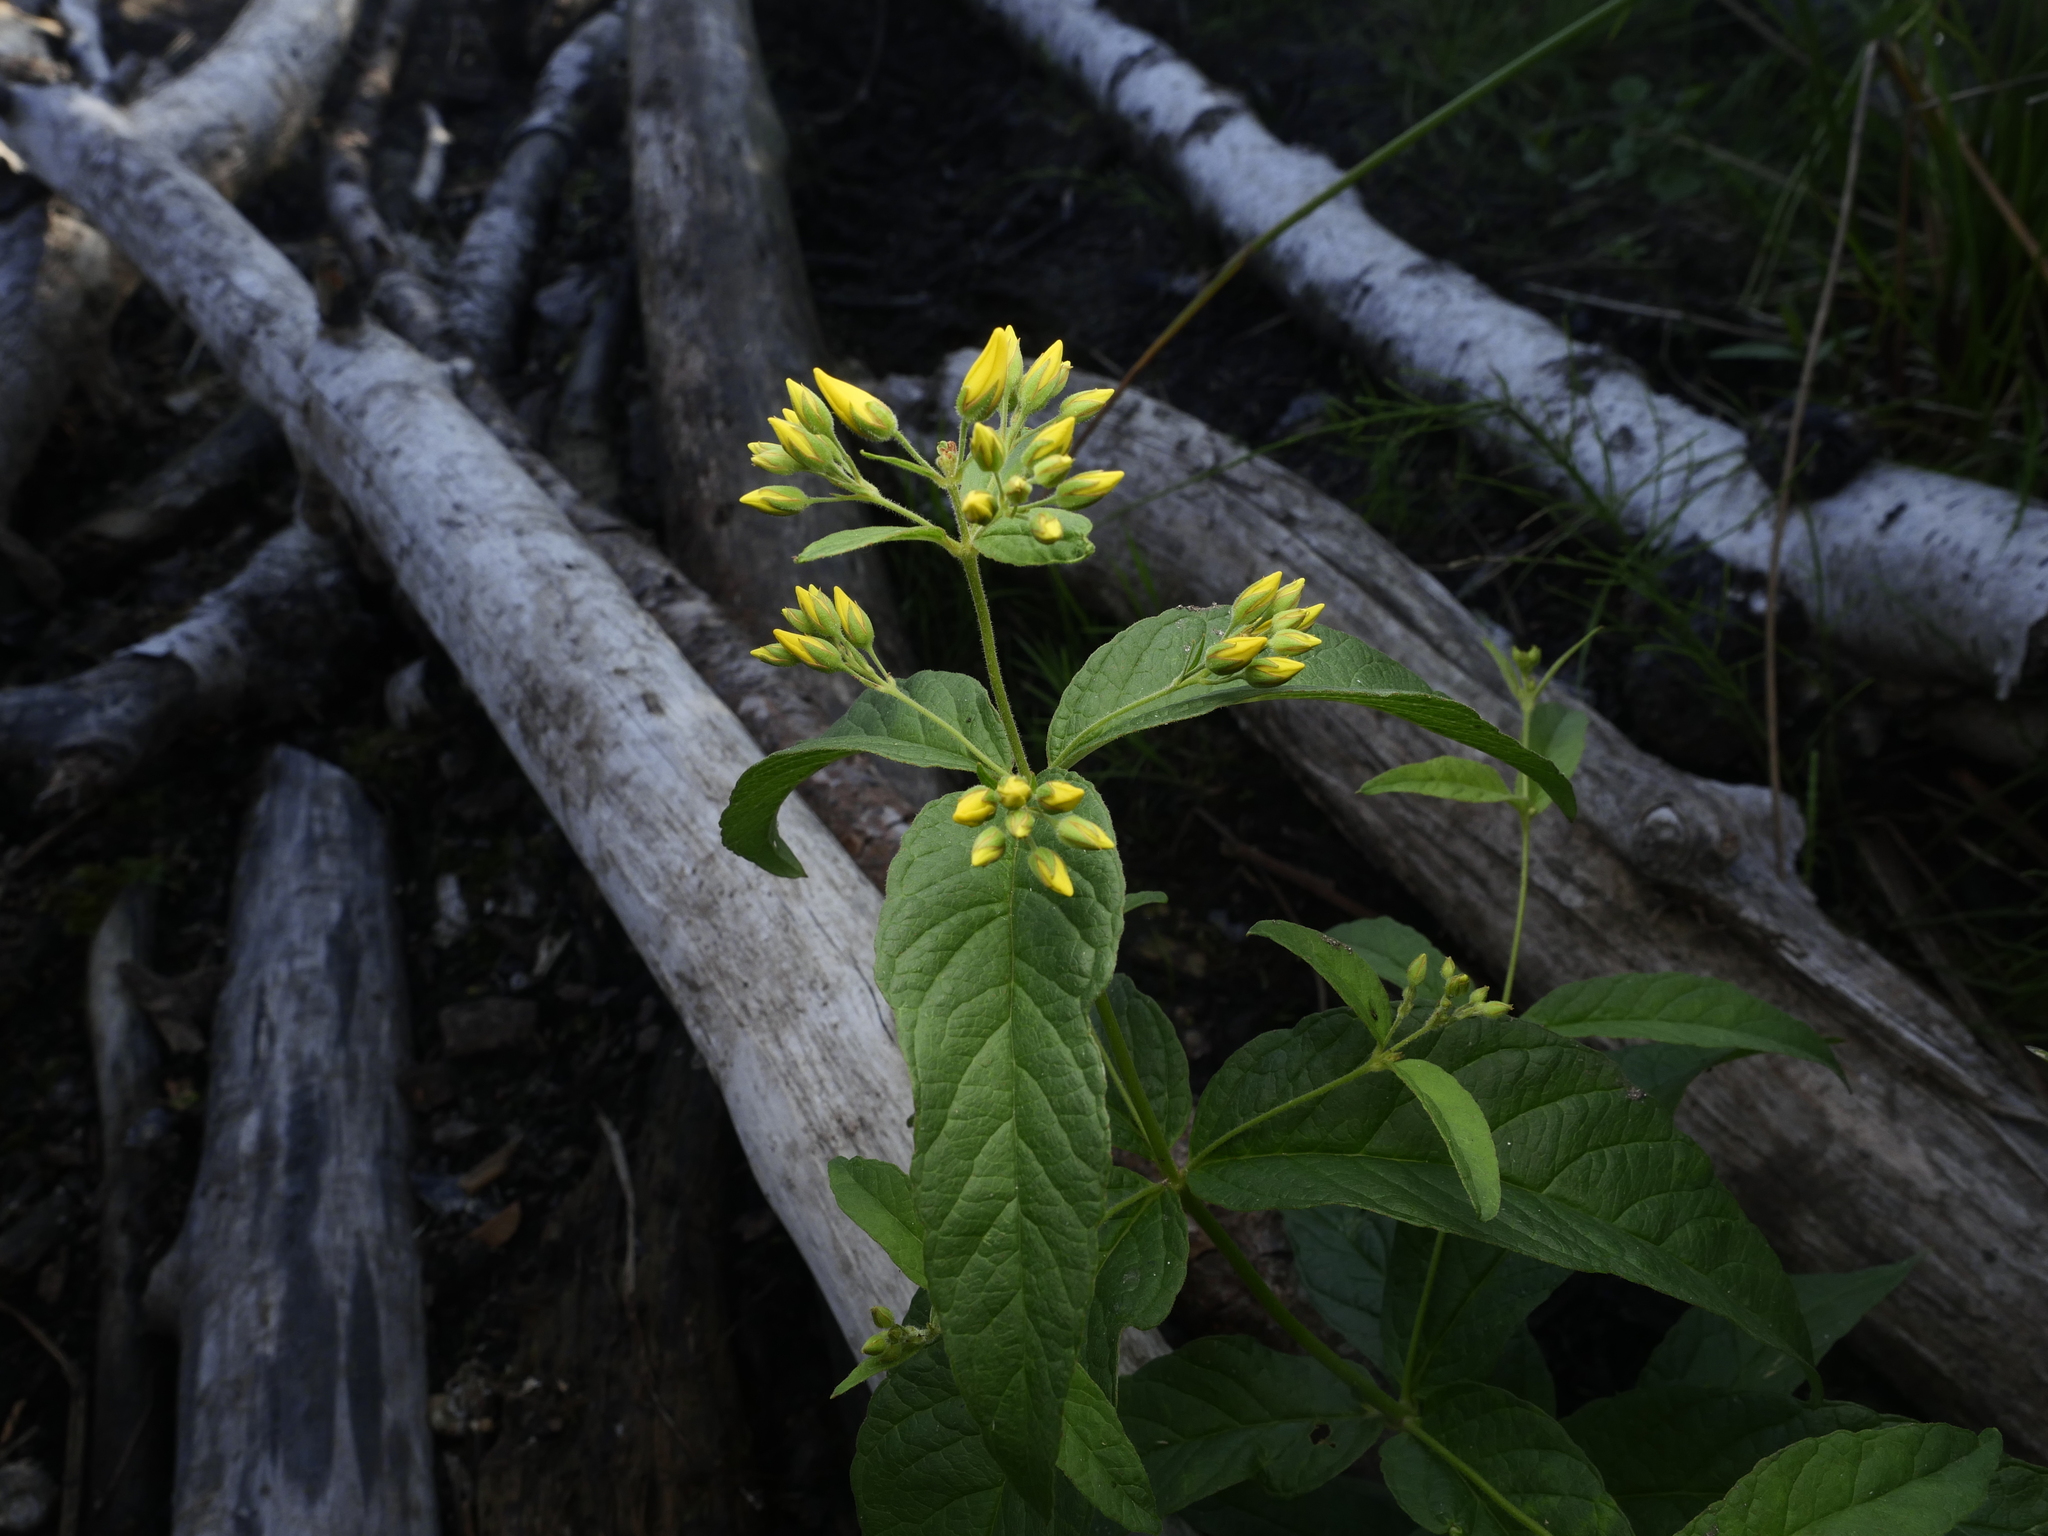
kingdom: Plantae
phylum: Tracheophyta
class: Magnoliopsida
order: Ericales
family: Primulaceae
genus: Lysimachia
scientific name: Lysimachia vulgaris
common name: Yellow loosestrife
